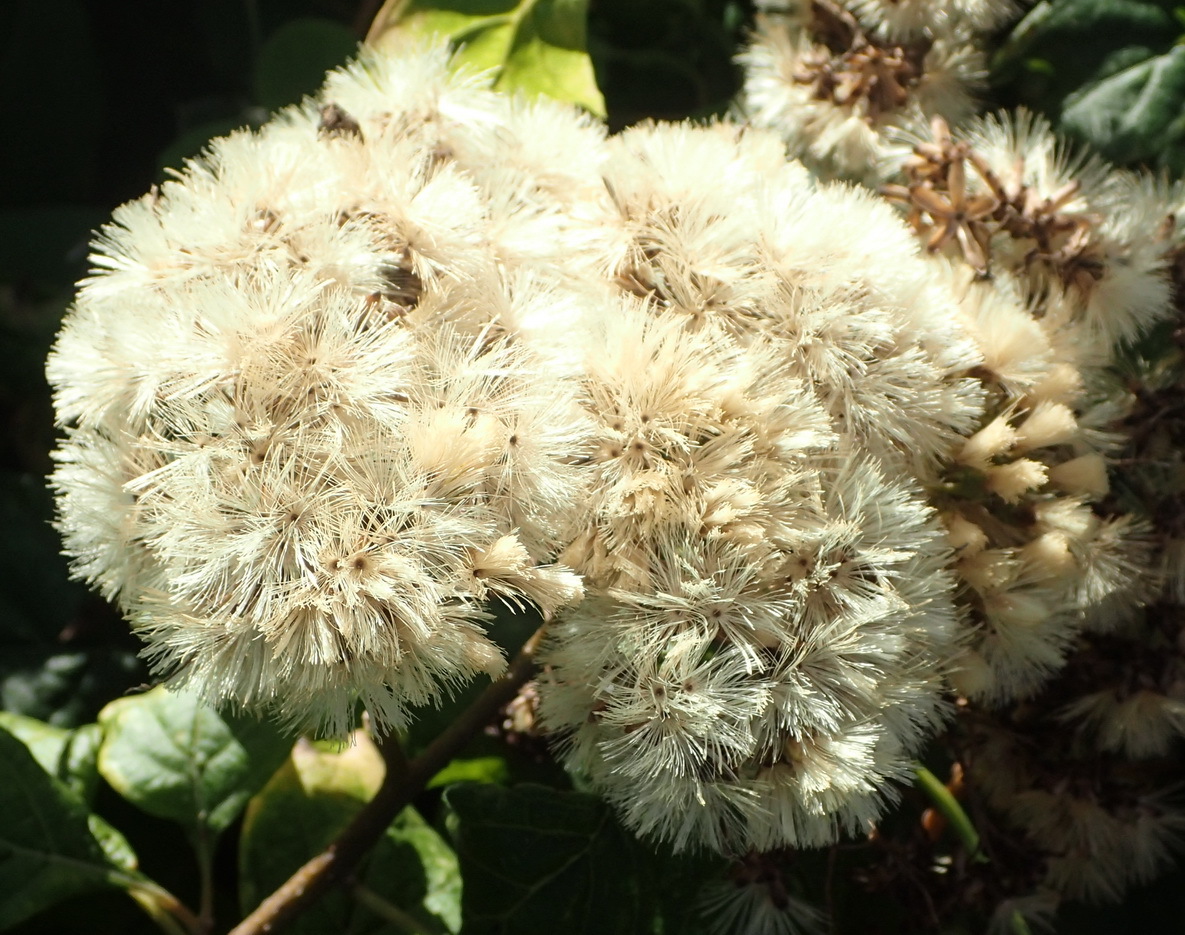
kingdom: Plantae
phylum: Tracheophyta
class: Magnoliopsida
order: Asterales
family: Asteraceae
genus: Gymnanthemum
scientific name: Gymnanthemum capense
